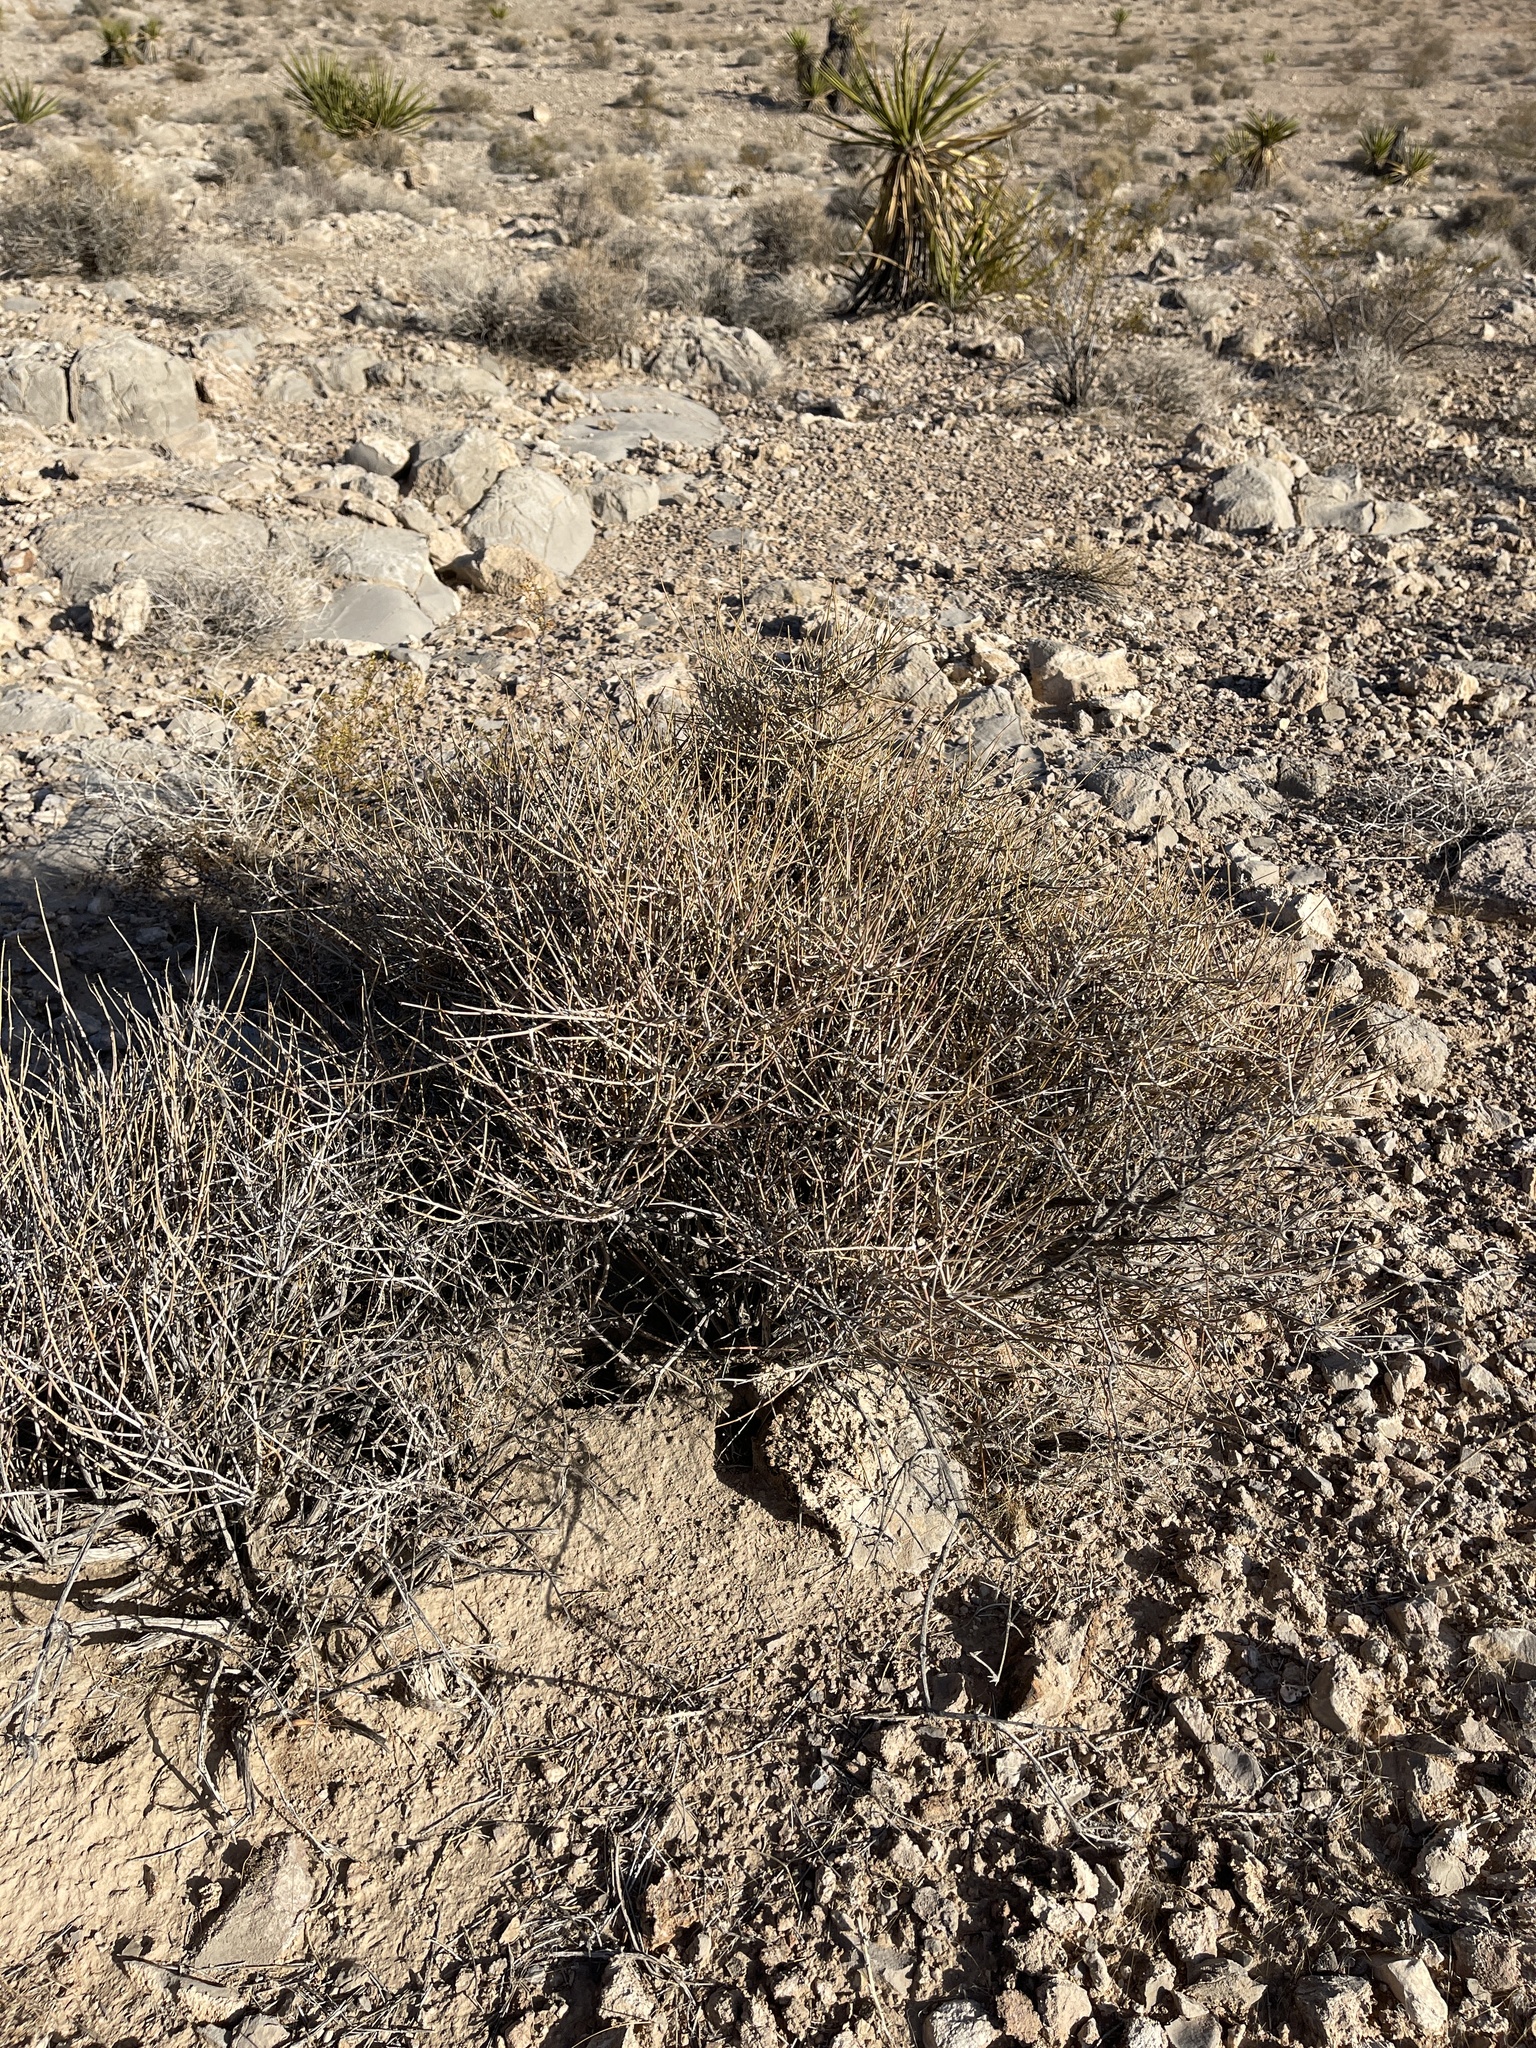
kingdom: Plantae
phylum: Tracheophyta
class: Gnetopsida
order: Ephedrales
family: Ephedraceae
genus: Ephedra
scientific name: Ephedra nevadensis
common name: Gray ephedra
